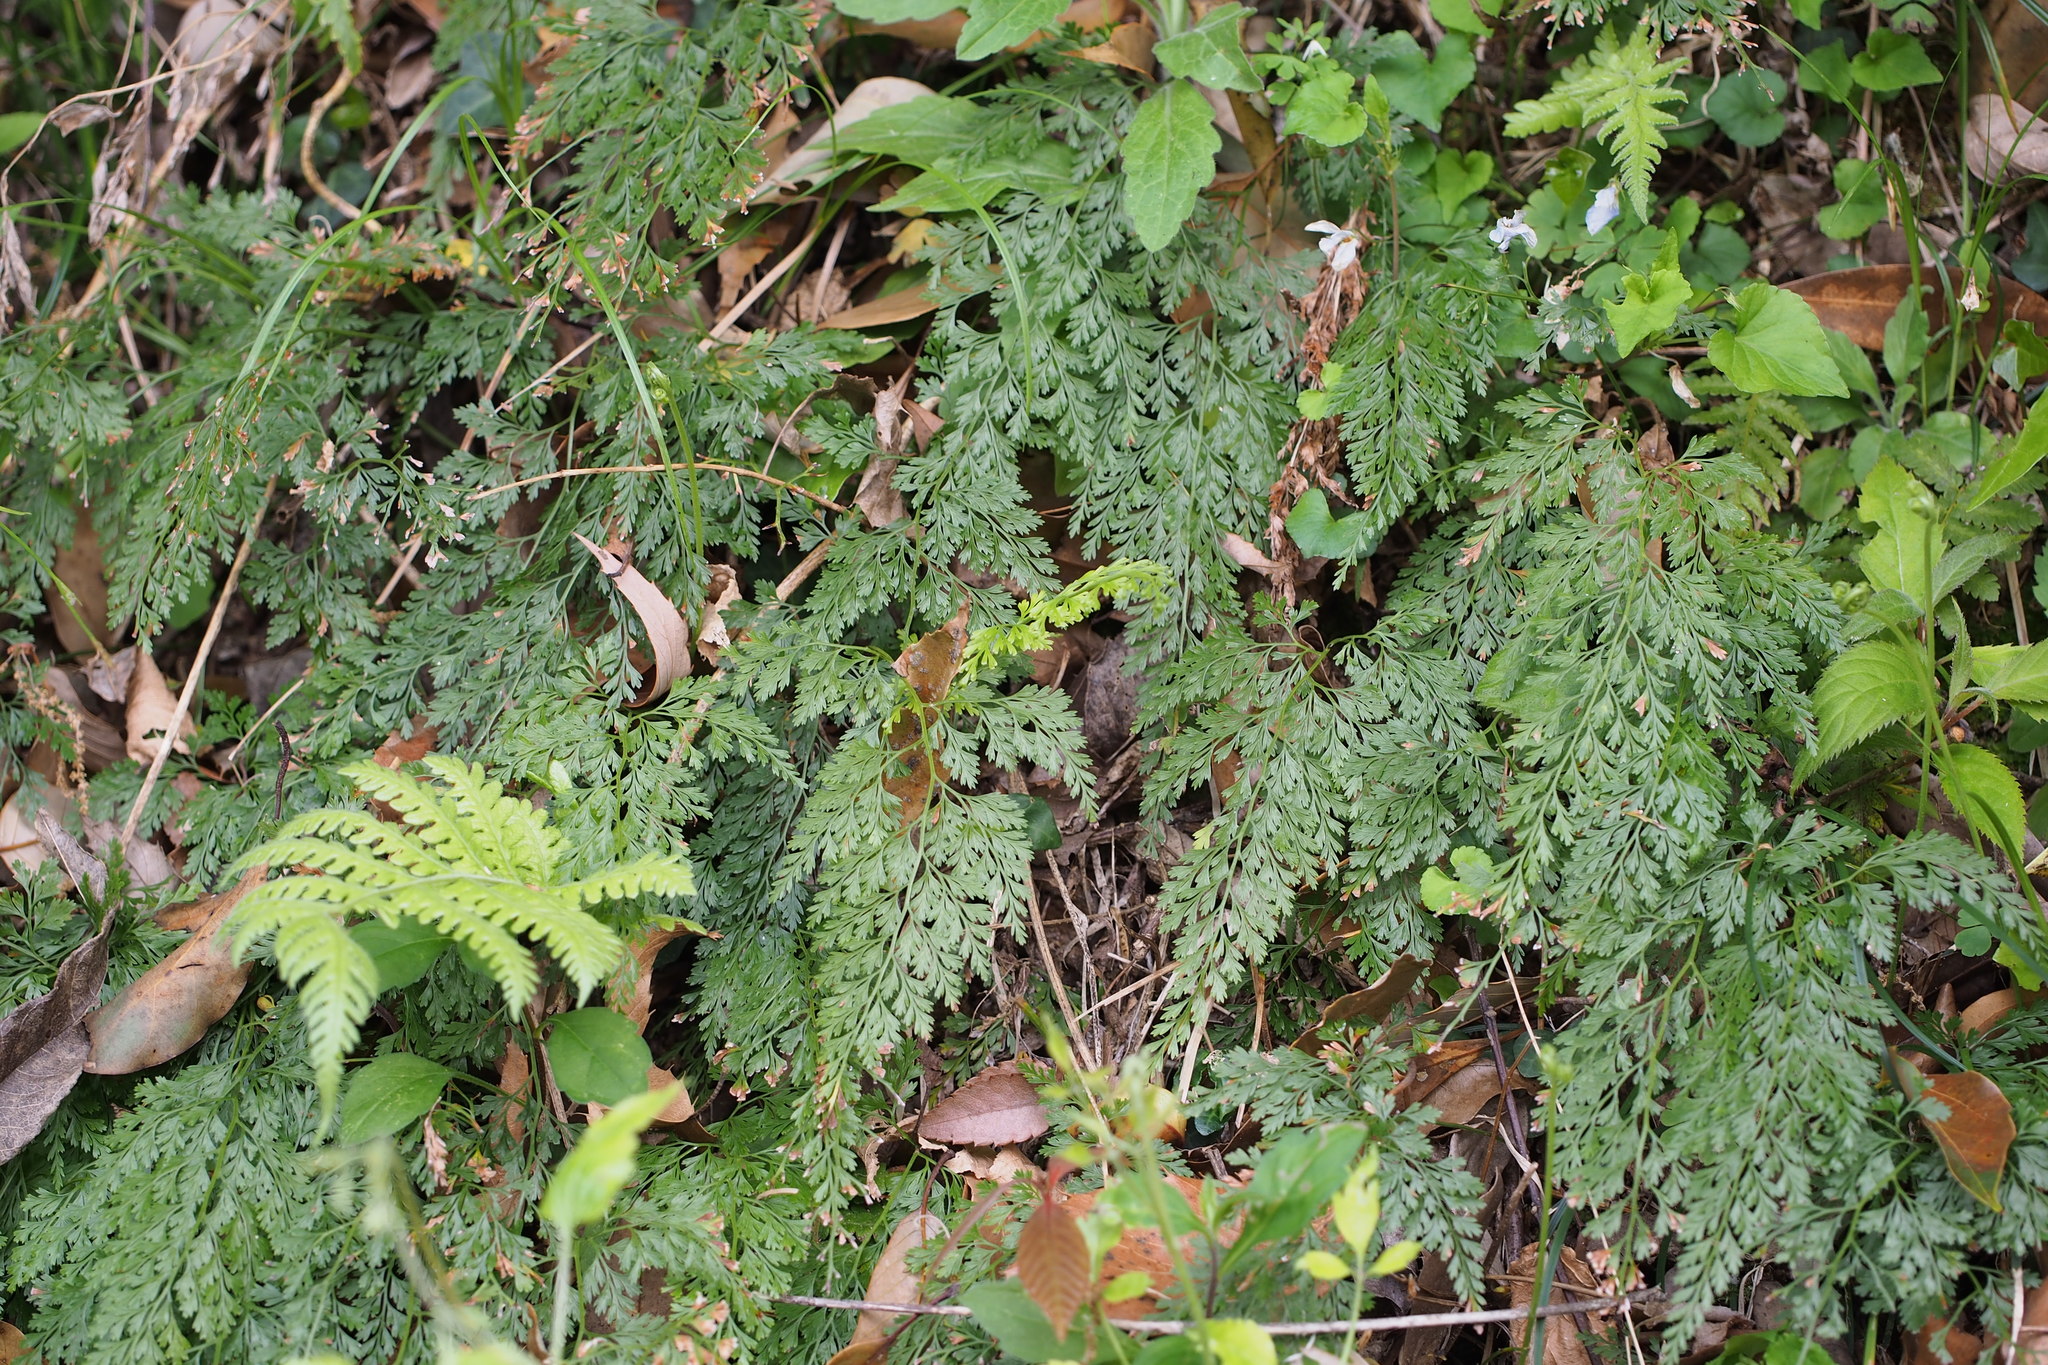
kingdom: Plantae
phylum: Tracheophyta
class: Polypodiopsida
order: Polypodiales
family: Pteridaceae
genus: Onychium
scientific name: Onychium japonicum
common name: Carrot fern
